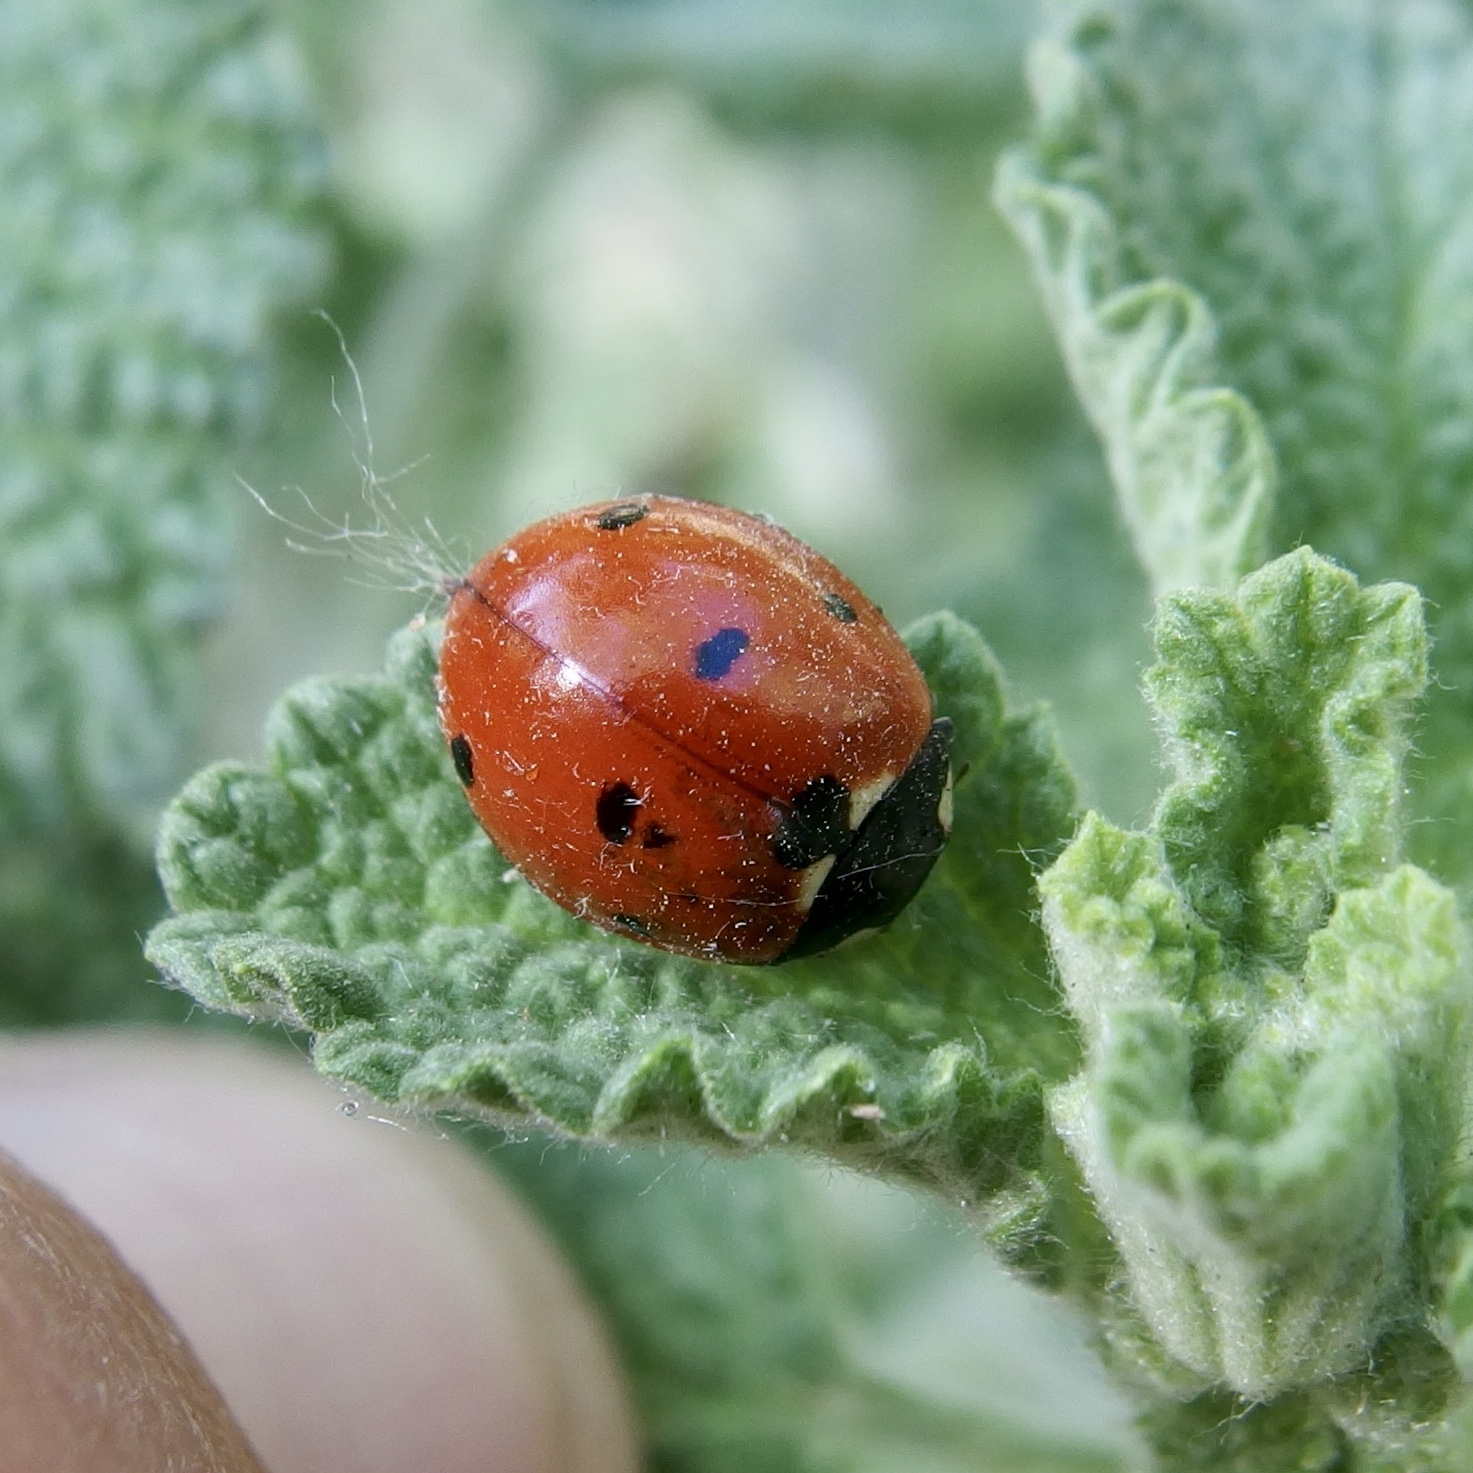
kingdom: Animalia
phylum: Arthropoda
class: Insecta
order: Coleoptera
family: Coccinellidae
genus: Coccinella
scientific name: Coccinella septempunctata
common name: Sevenspotted lady beetle
